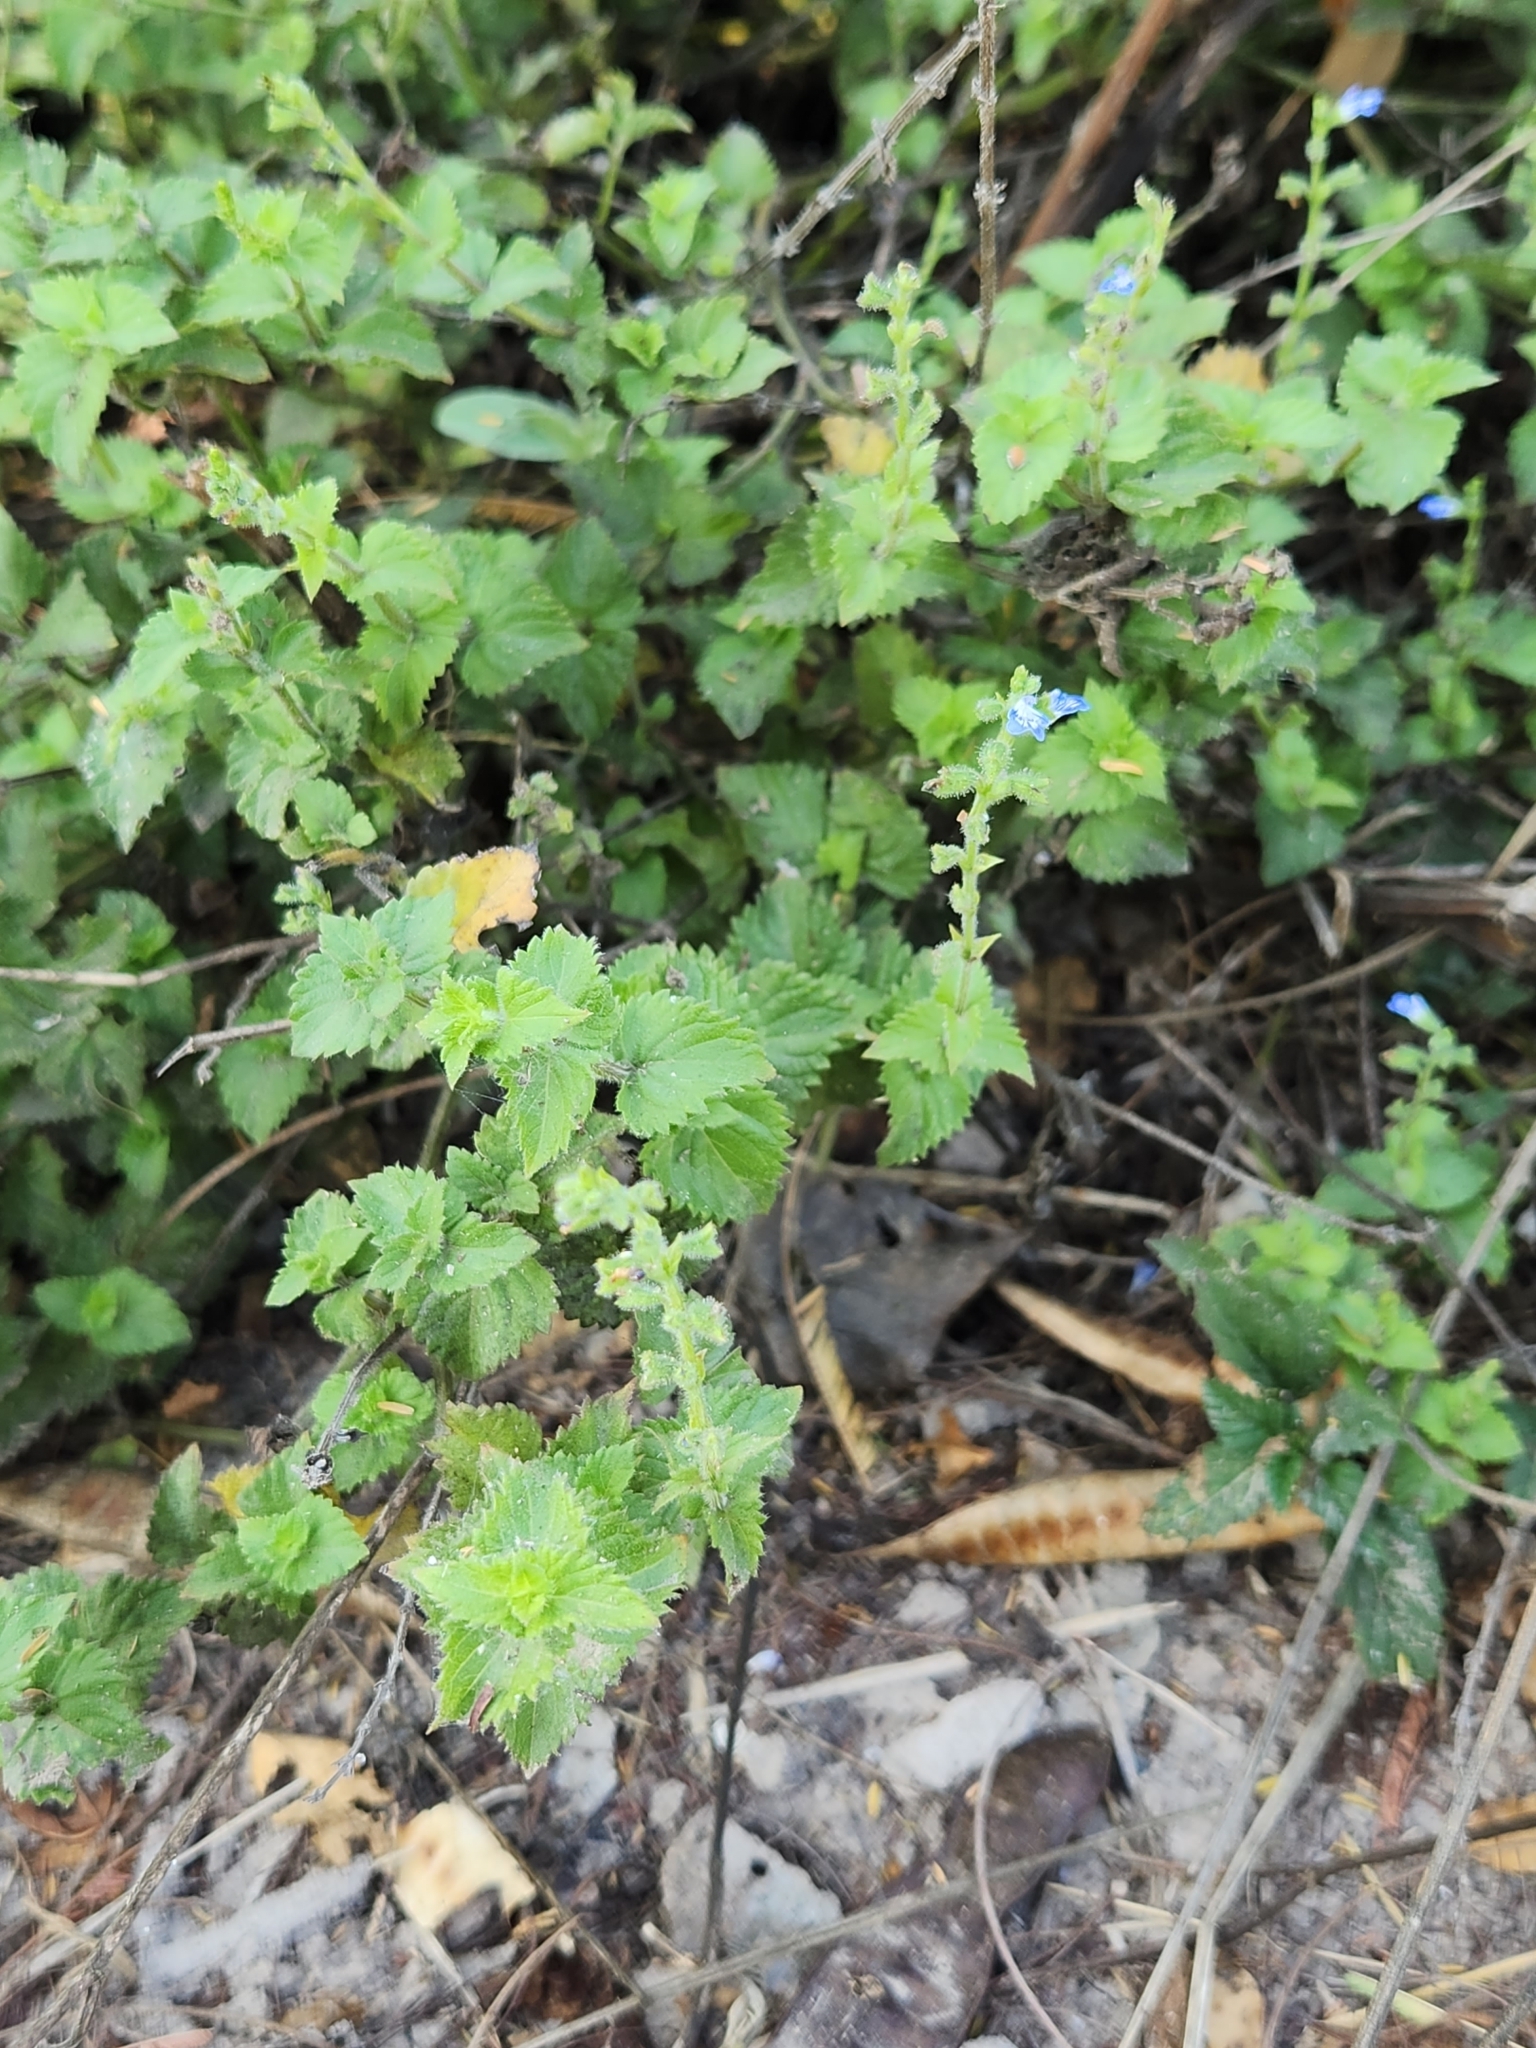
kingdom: Plantae
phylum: Tracheophyta
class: Magnoliopsida
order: Lamiales
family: Lamiaceae
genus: Salvia
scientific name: Salvia misella
